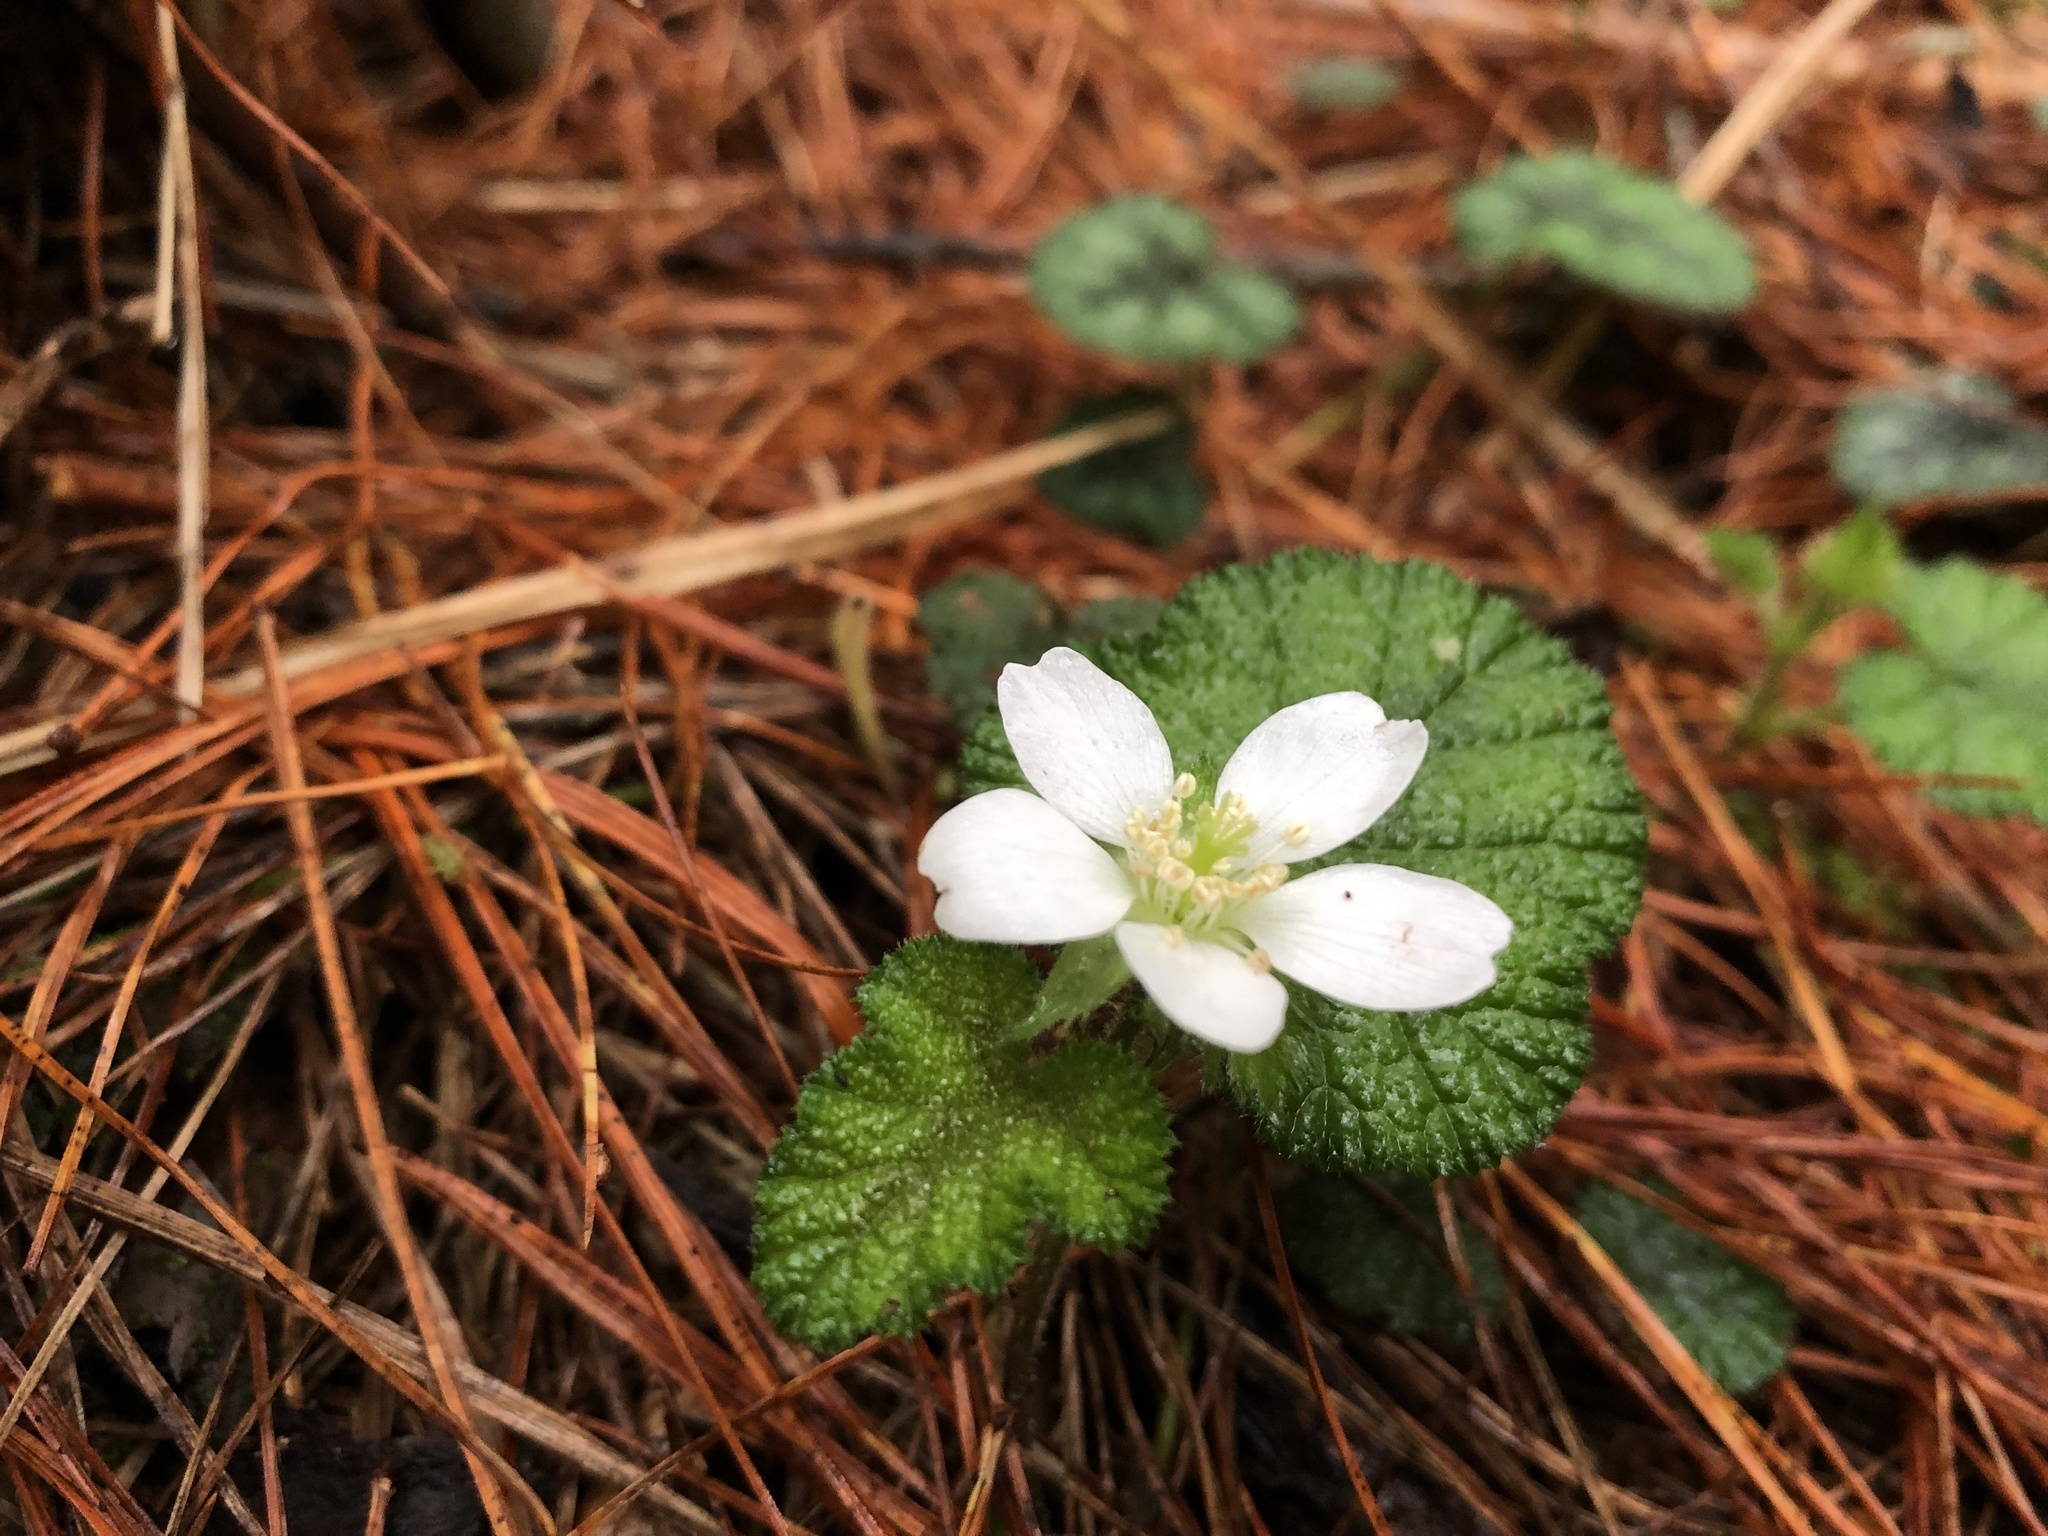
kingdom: Plantae
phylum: Tracheophyta
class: Magnoliopsida
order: Rosales
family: Rosaceae
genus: Rubus
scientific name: Rubus pectinellus
